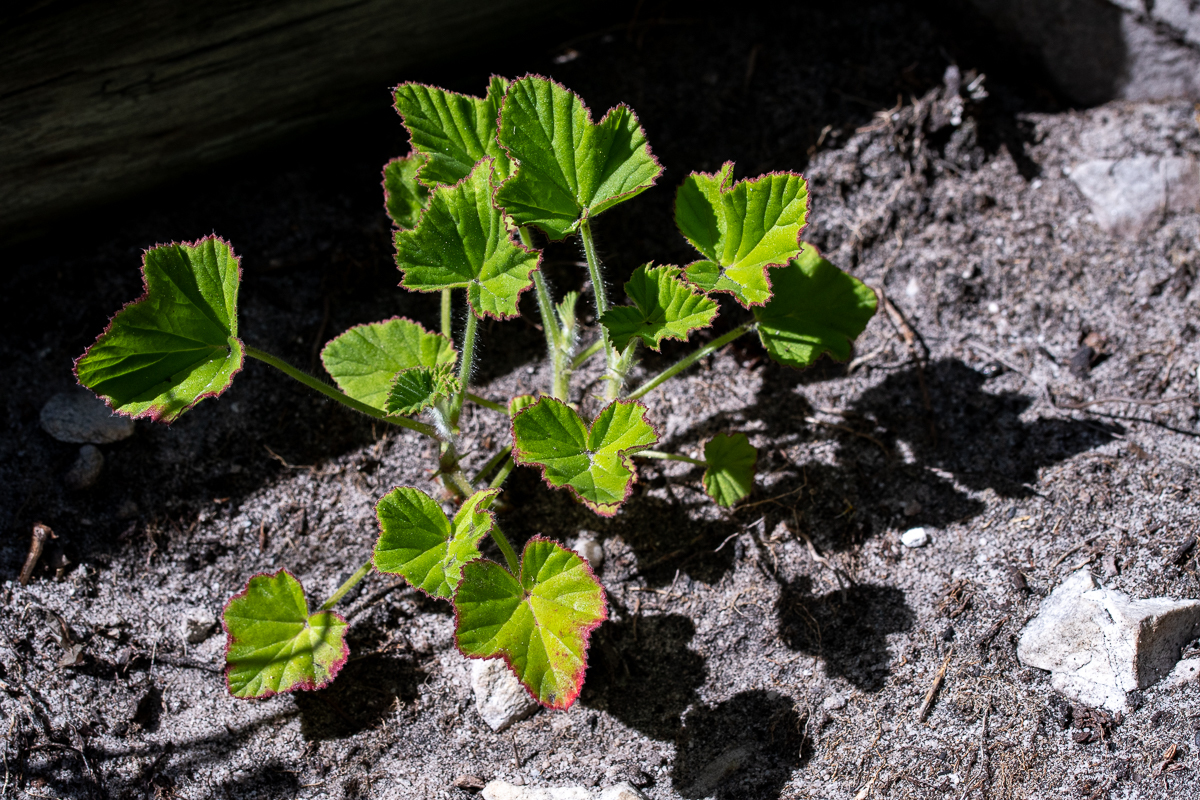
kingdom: Plantae
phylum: Tracheophyta
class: Magnoliopsida
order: Geraniales
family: Geraniaceae
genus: Pelargonium
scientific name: Pelargonium cucullatum
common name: Tree pelargonium
